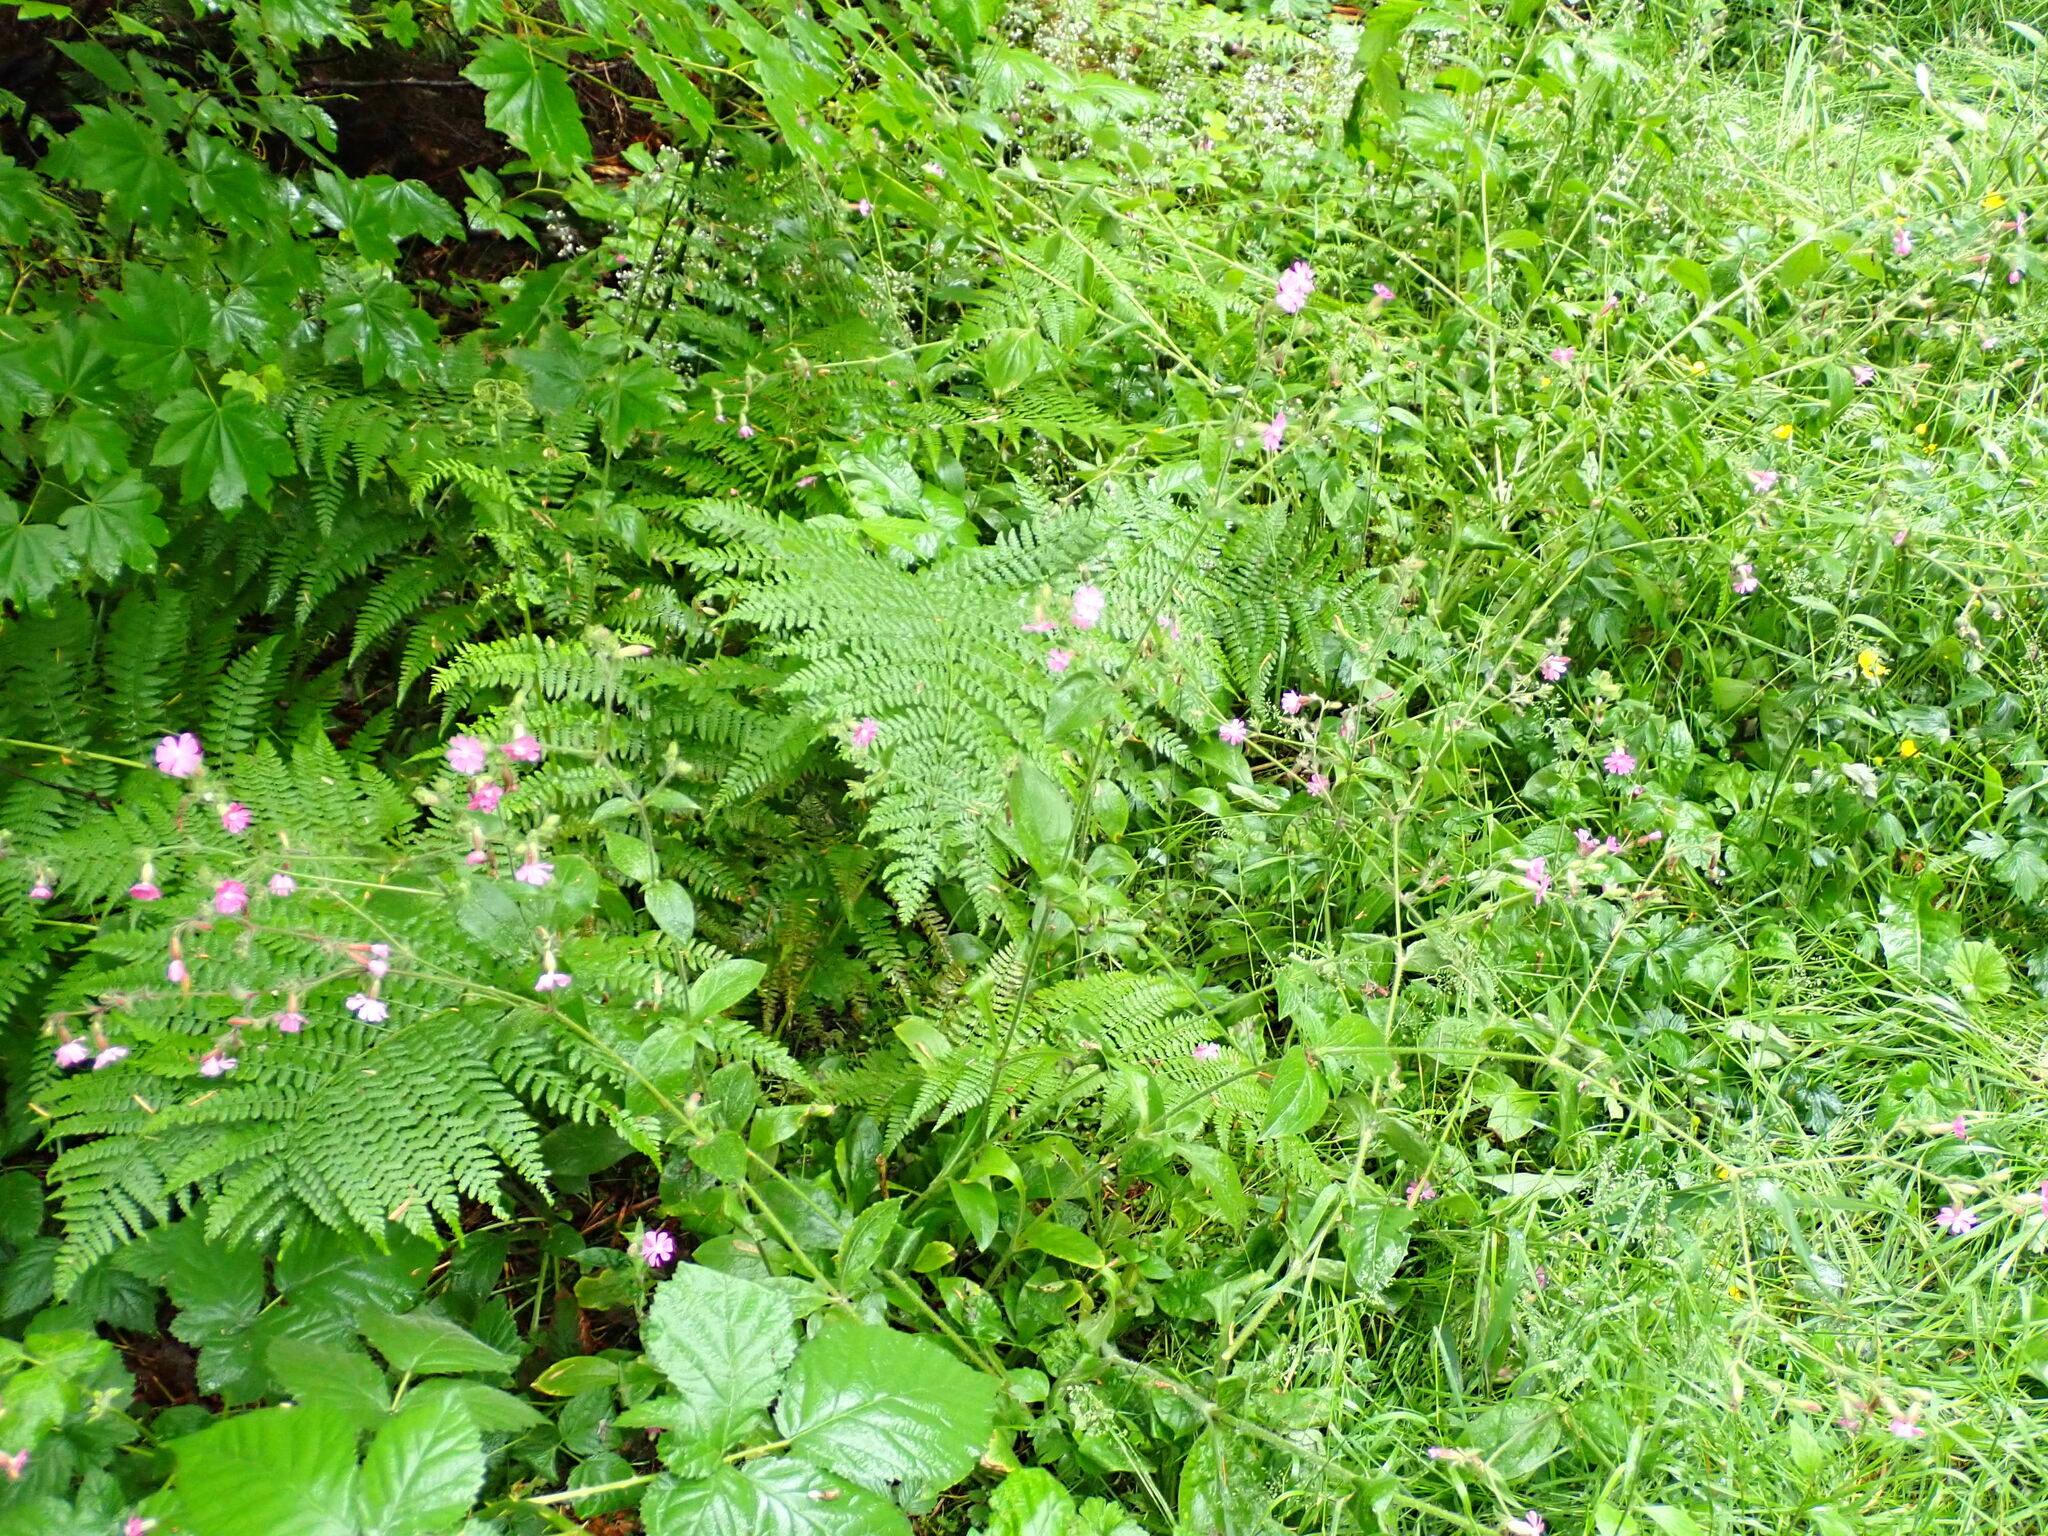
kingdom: Plantae
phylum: Tracheophyta
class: Magnoliopsida
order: Caryophyllales
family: Caryophyllaceae
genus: Silene
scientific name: Silene dioica
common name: Red campion
